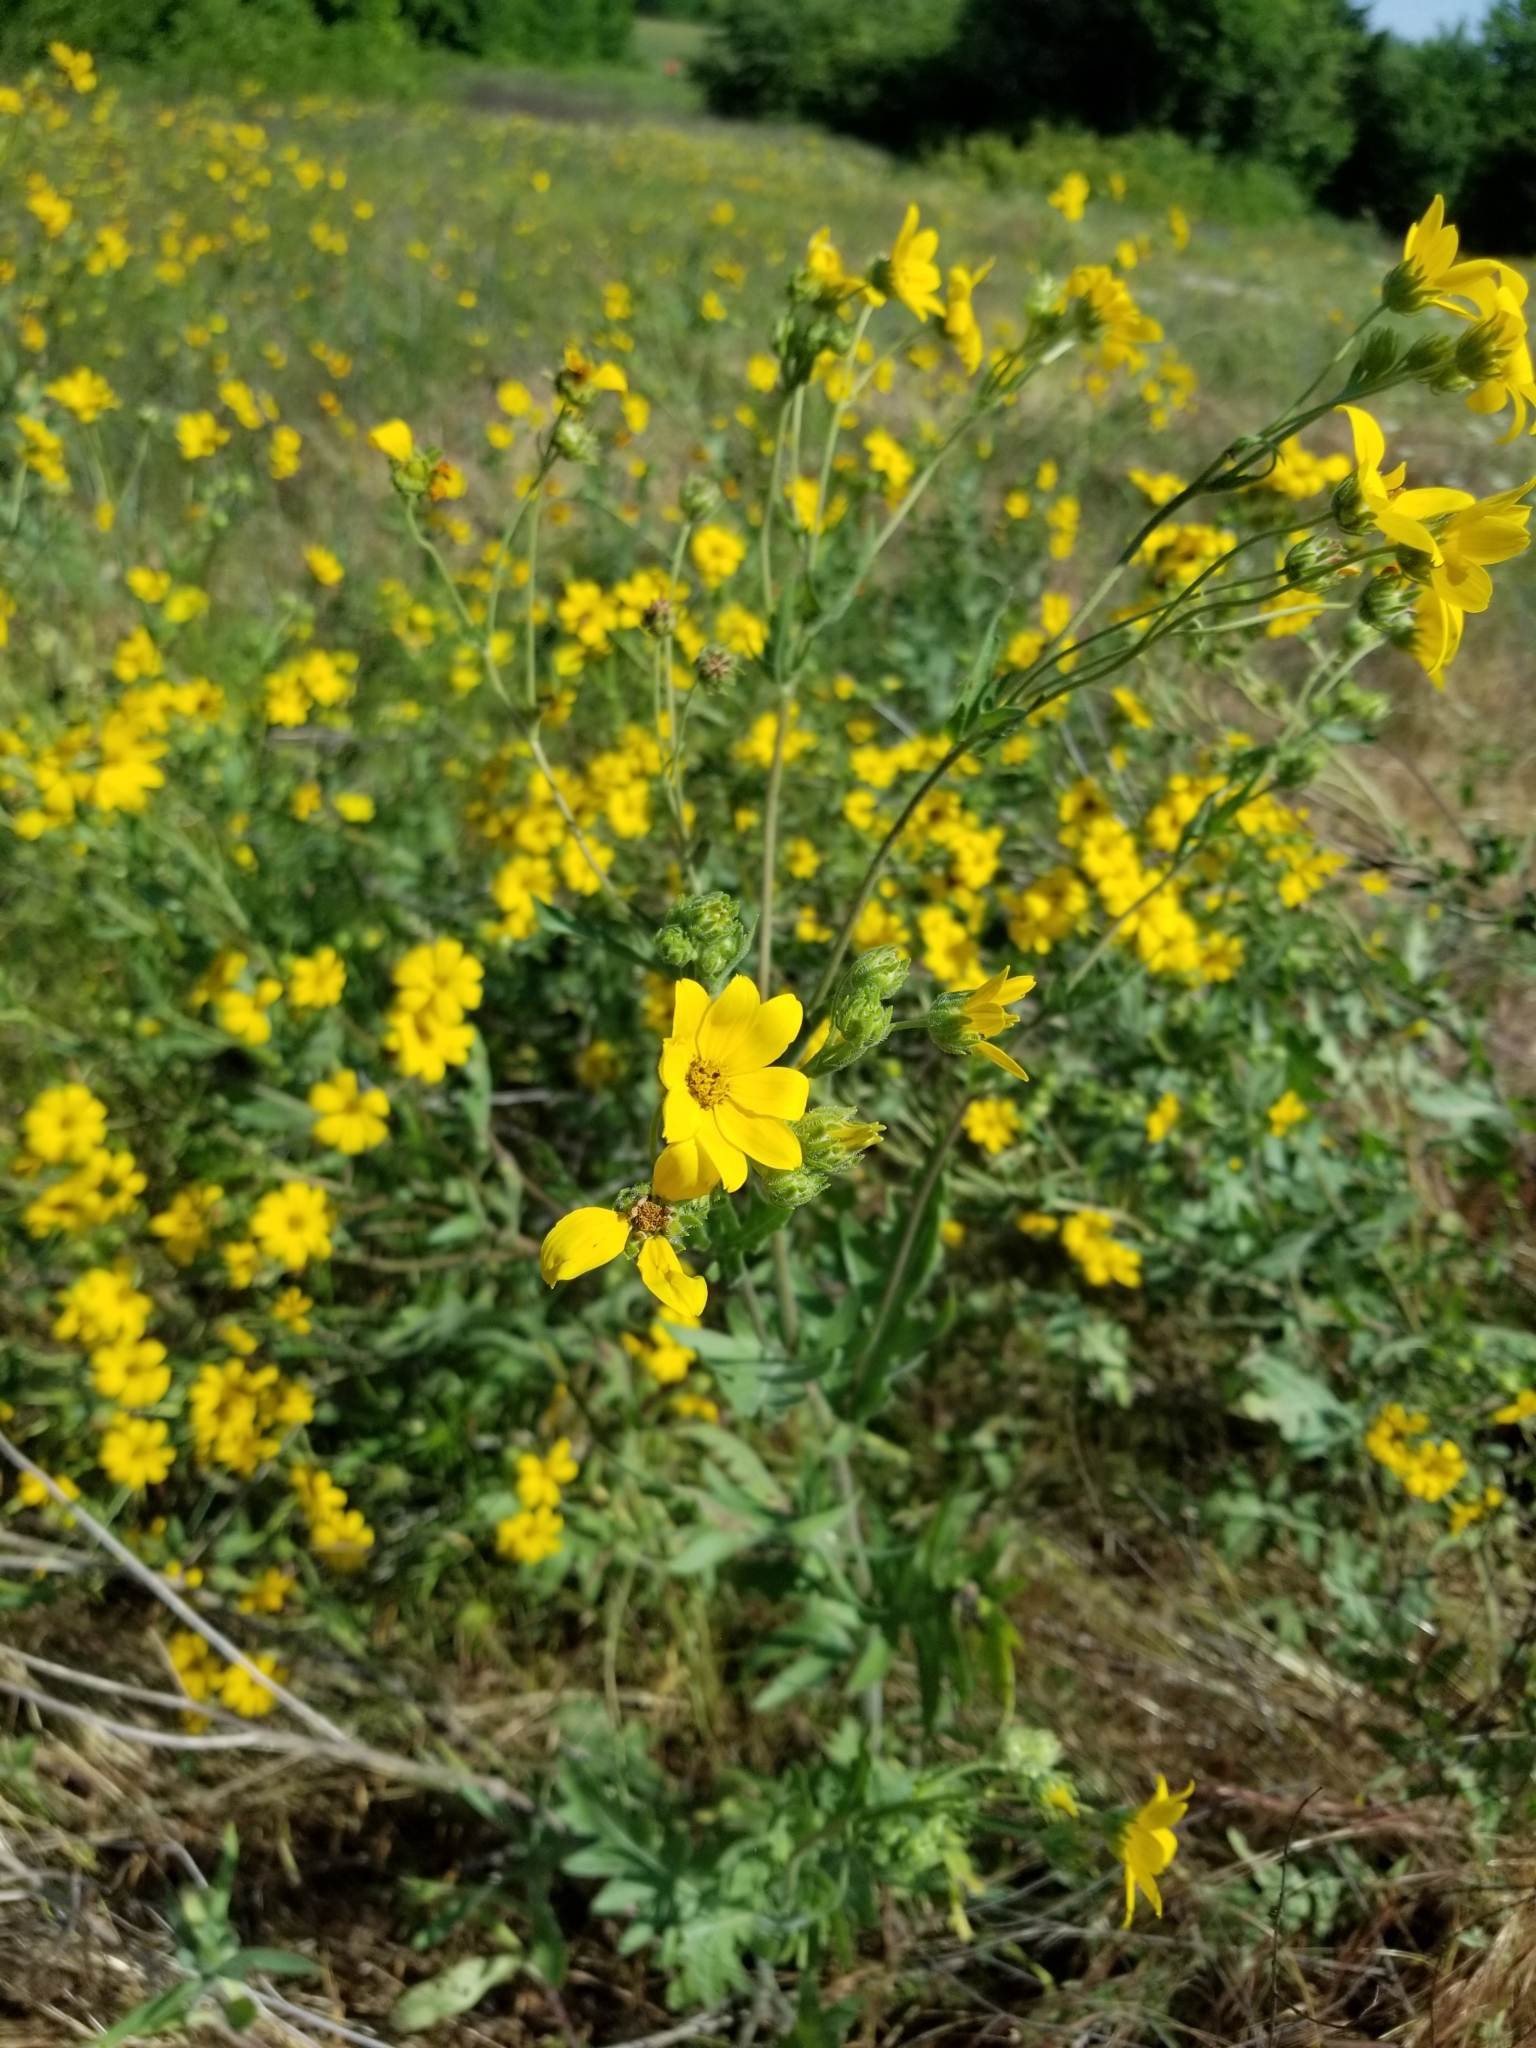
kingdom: Plantae
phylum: Tracheophyta
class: Magnoliopsida
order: Asterales
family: Asteraceae
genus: Engelmannia
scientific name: Engelmannia peristenia
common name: Engelmann's daisy
